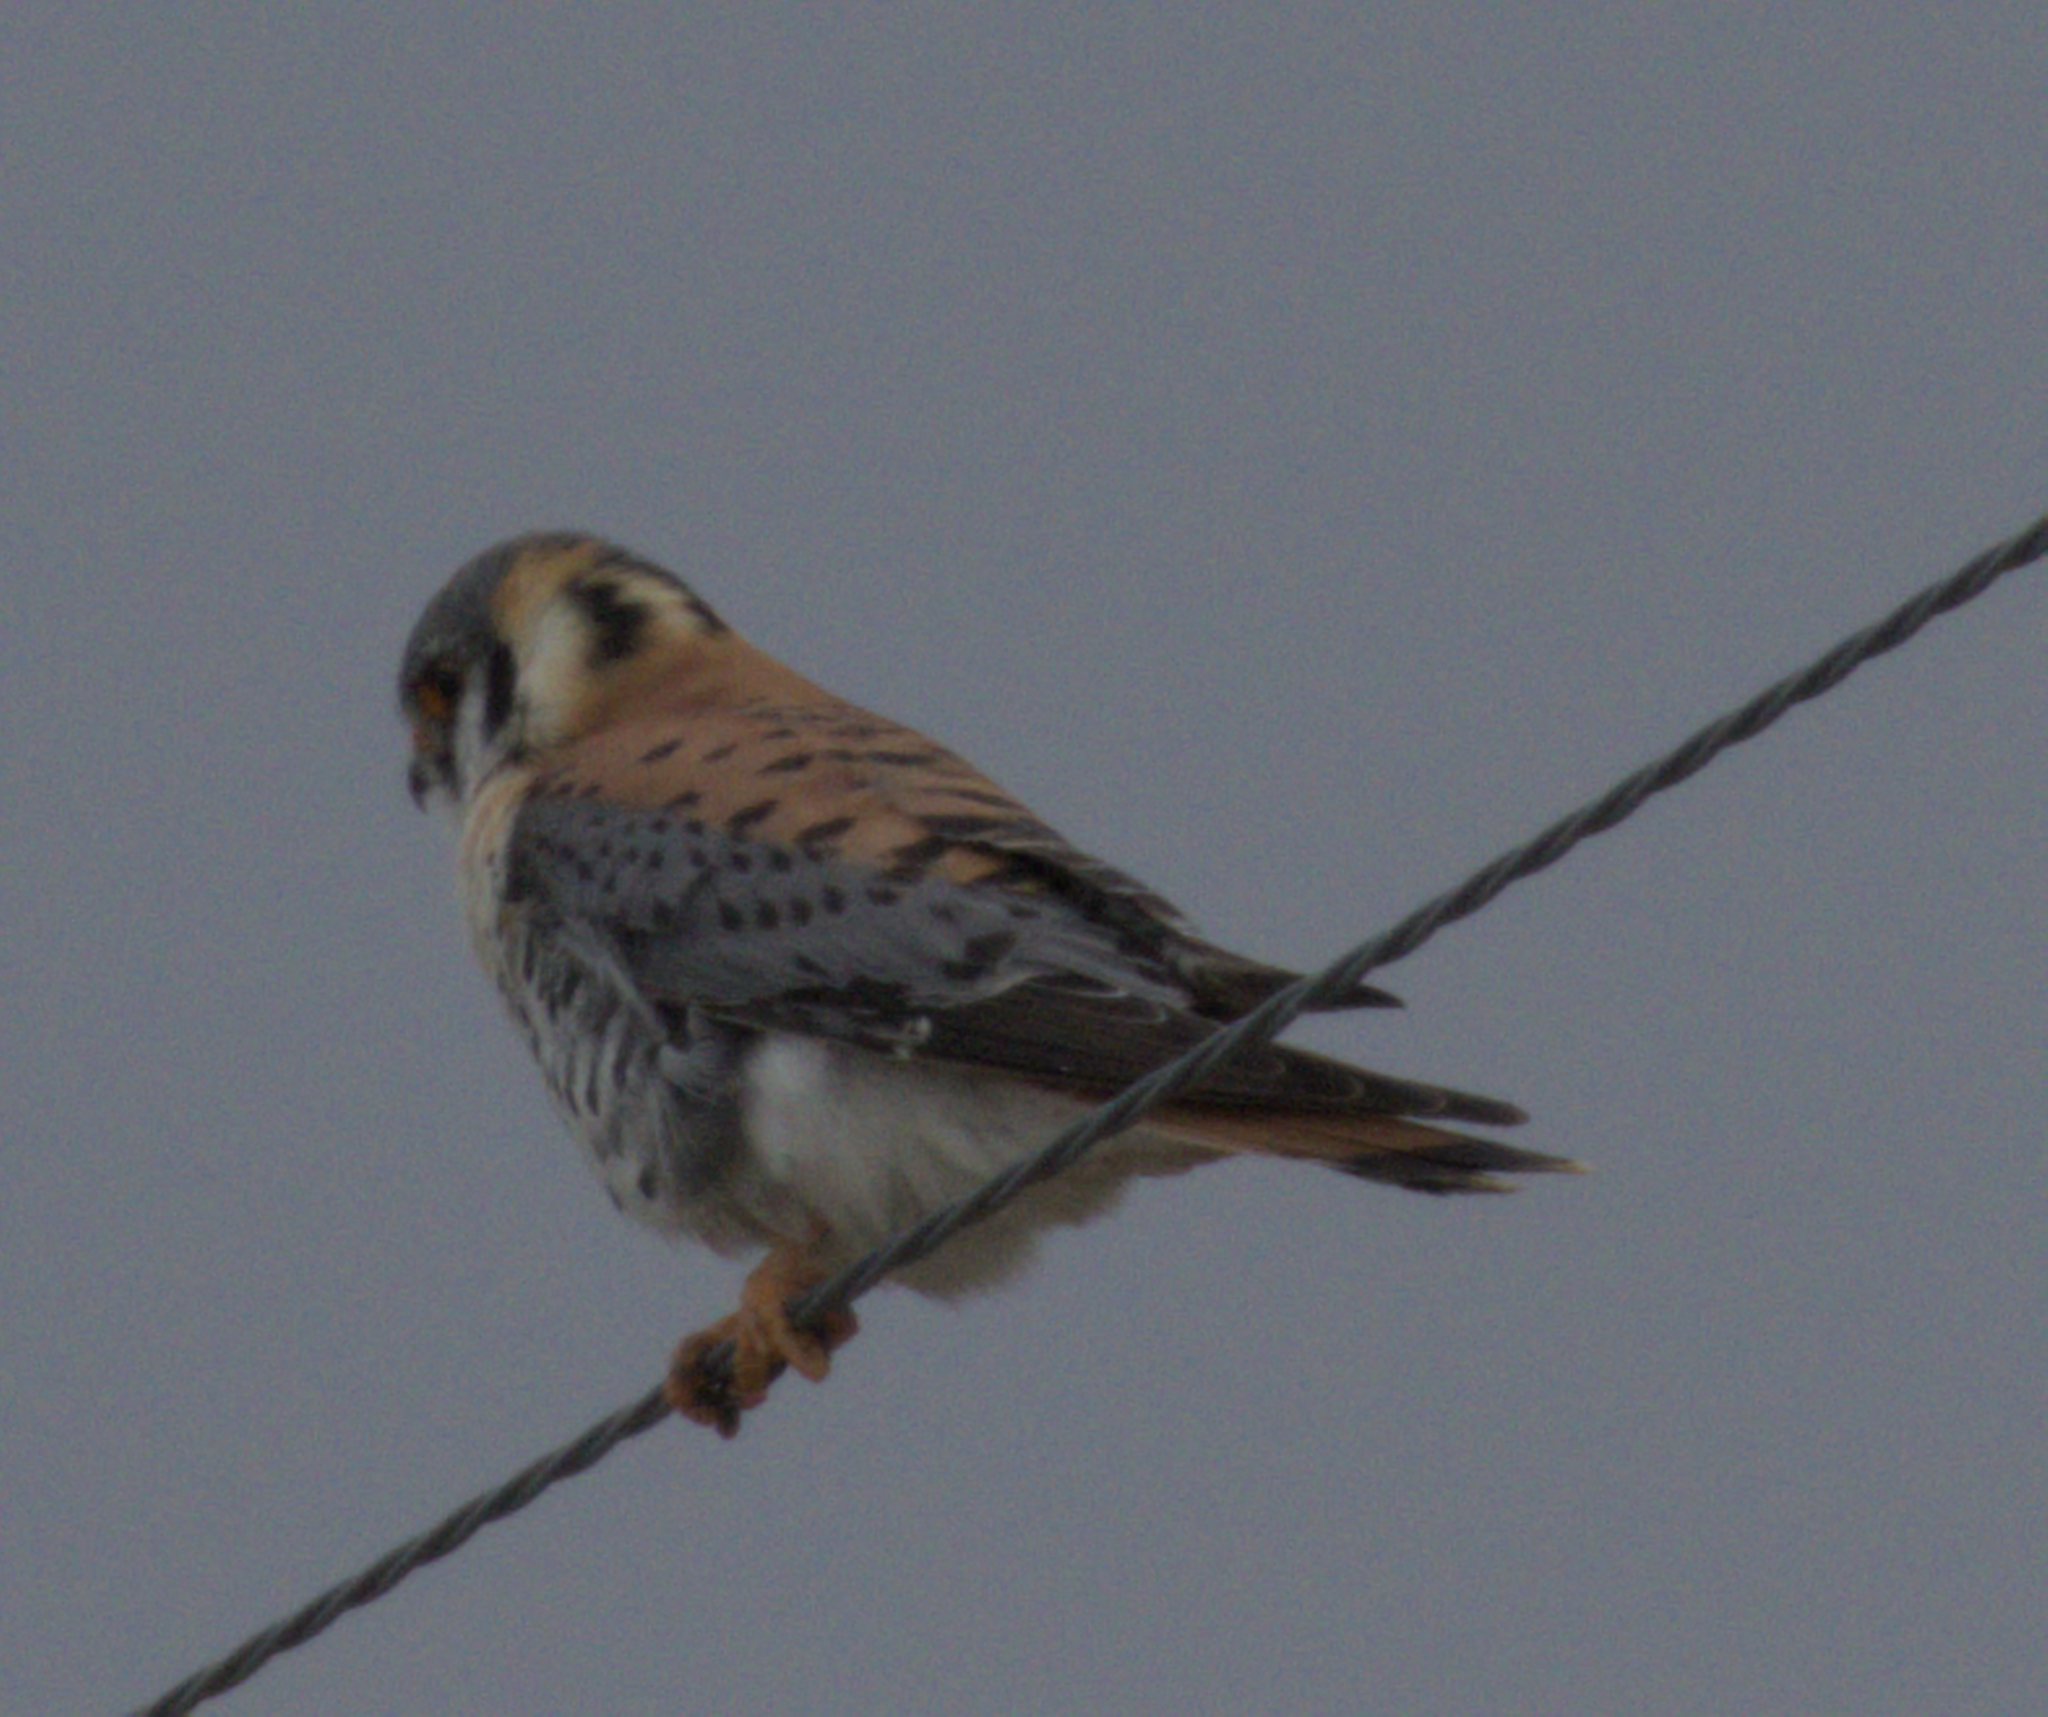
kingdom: Animalia
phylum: Chordata
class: Aves
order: Falconiformes
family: Falconidae
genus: Falco
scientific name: Falco sparverius
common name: American kestrel
